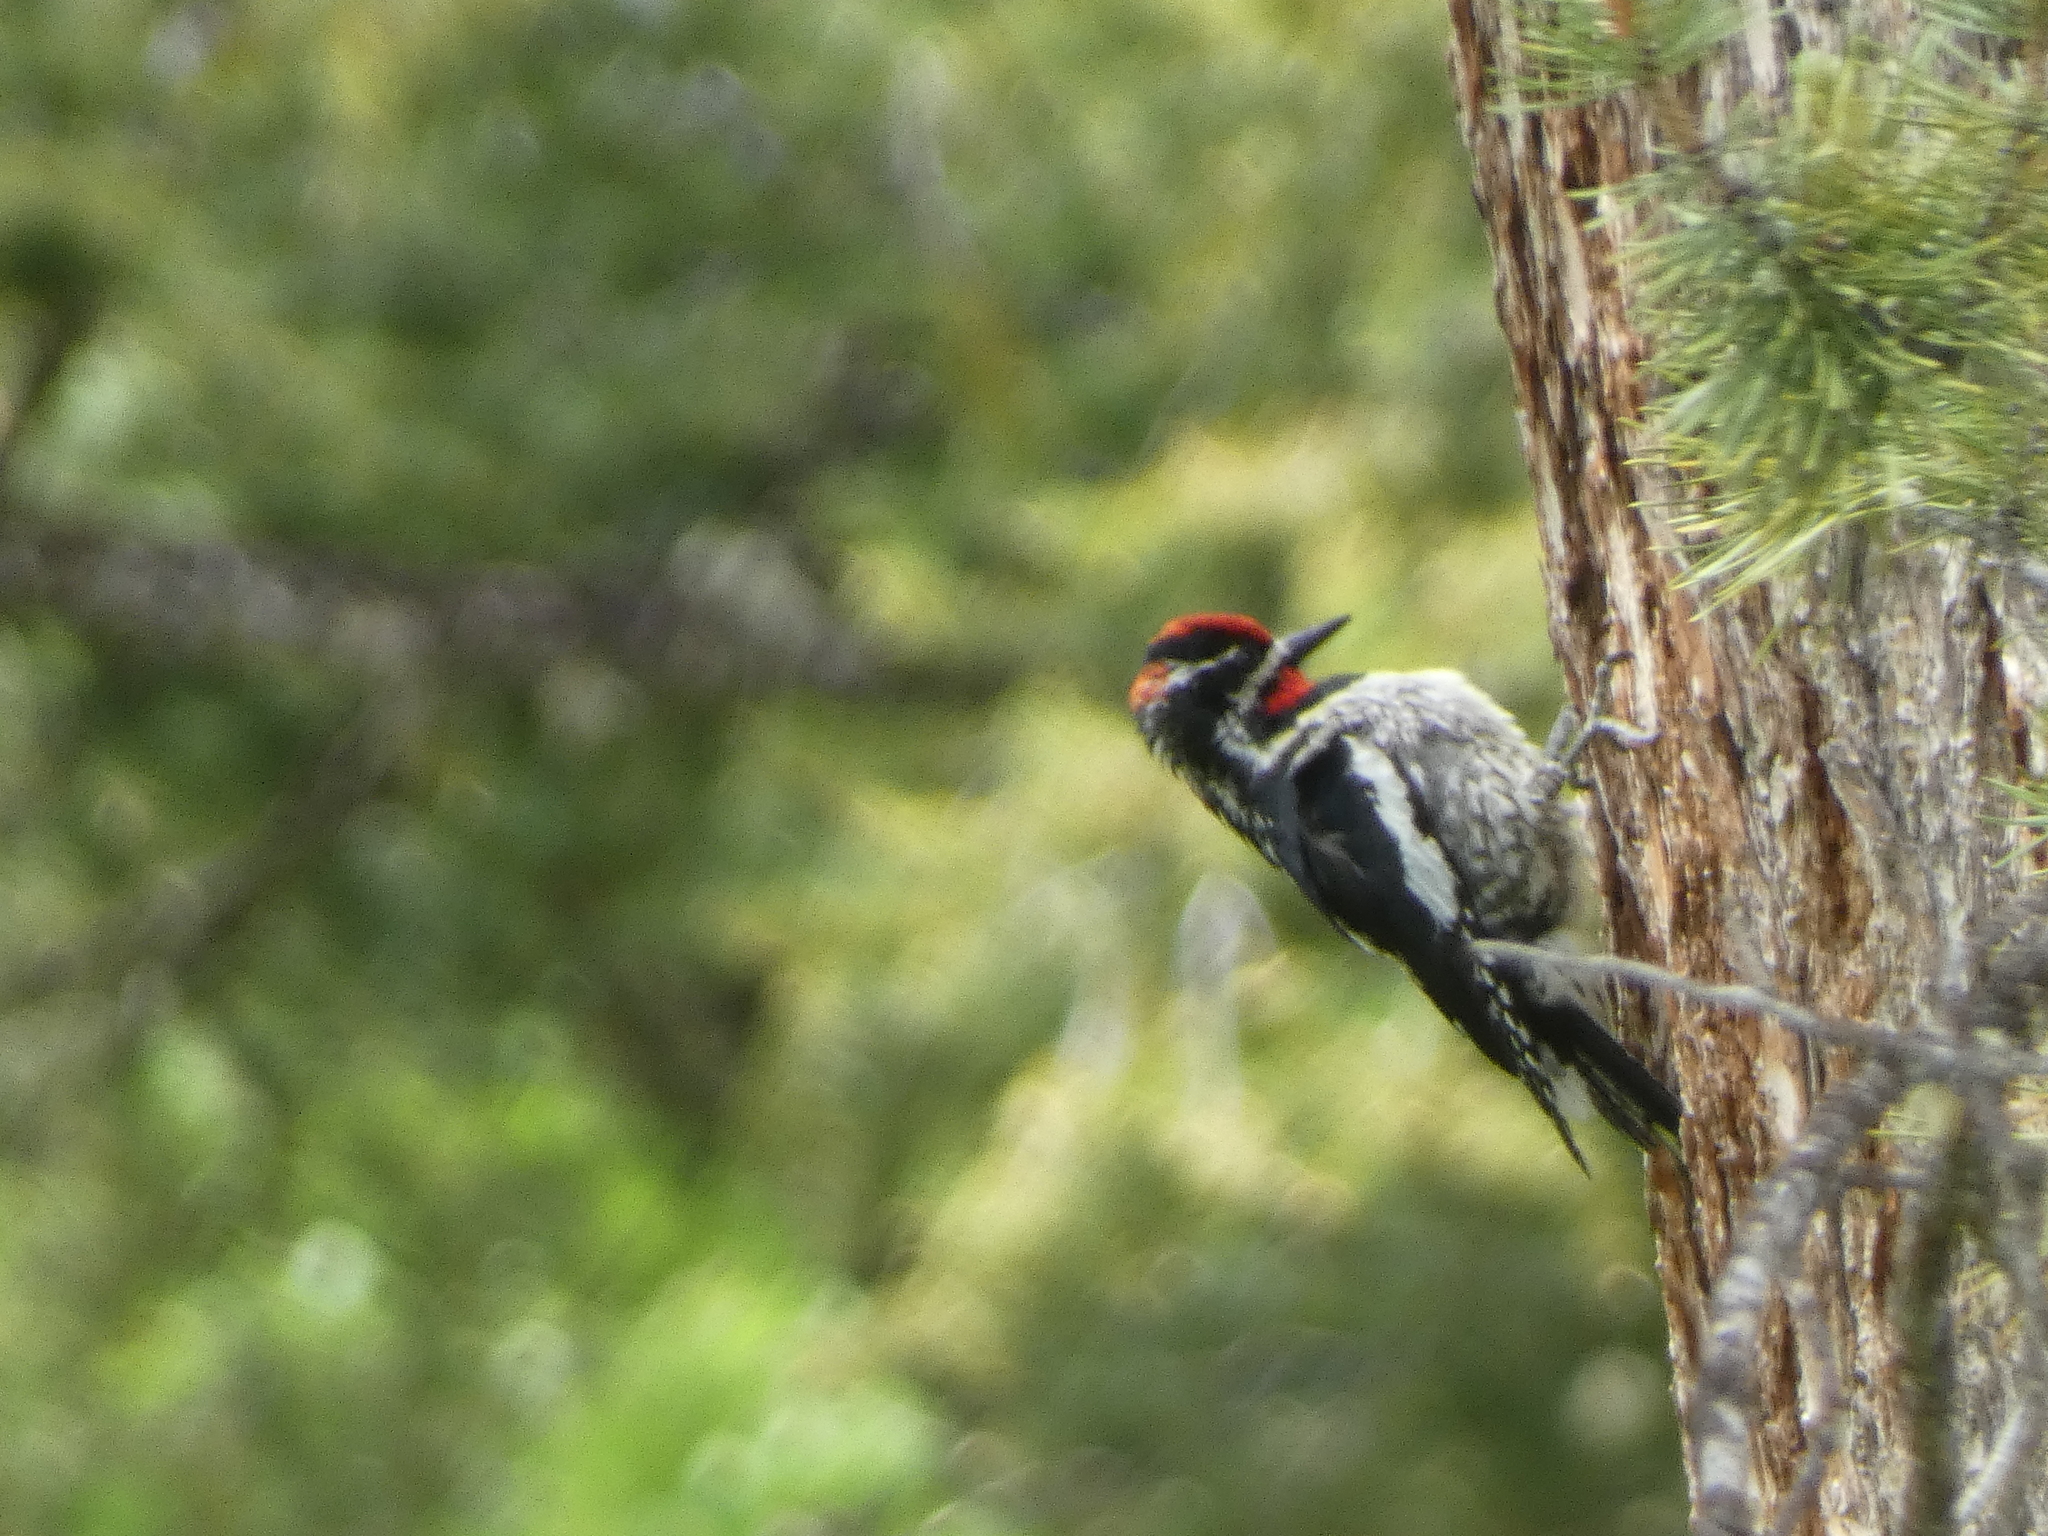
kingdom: Animalia
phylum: Chordata
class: Aves
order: Piciformes
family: Picidae
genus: Sphyrapicus
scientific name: Sphyrapicus nuchalis
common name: Red-naped sapsucker
